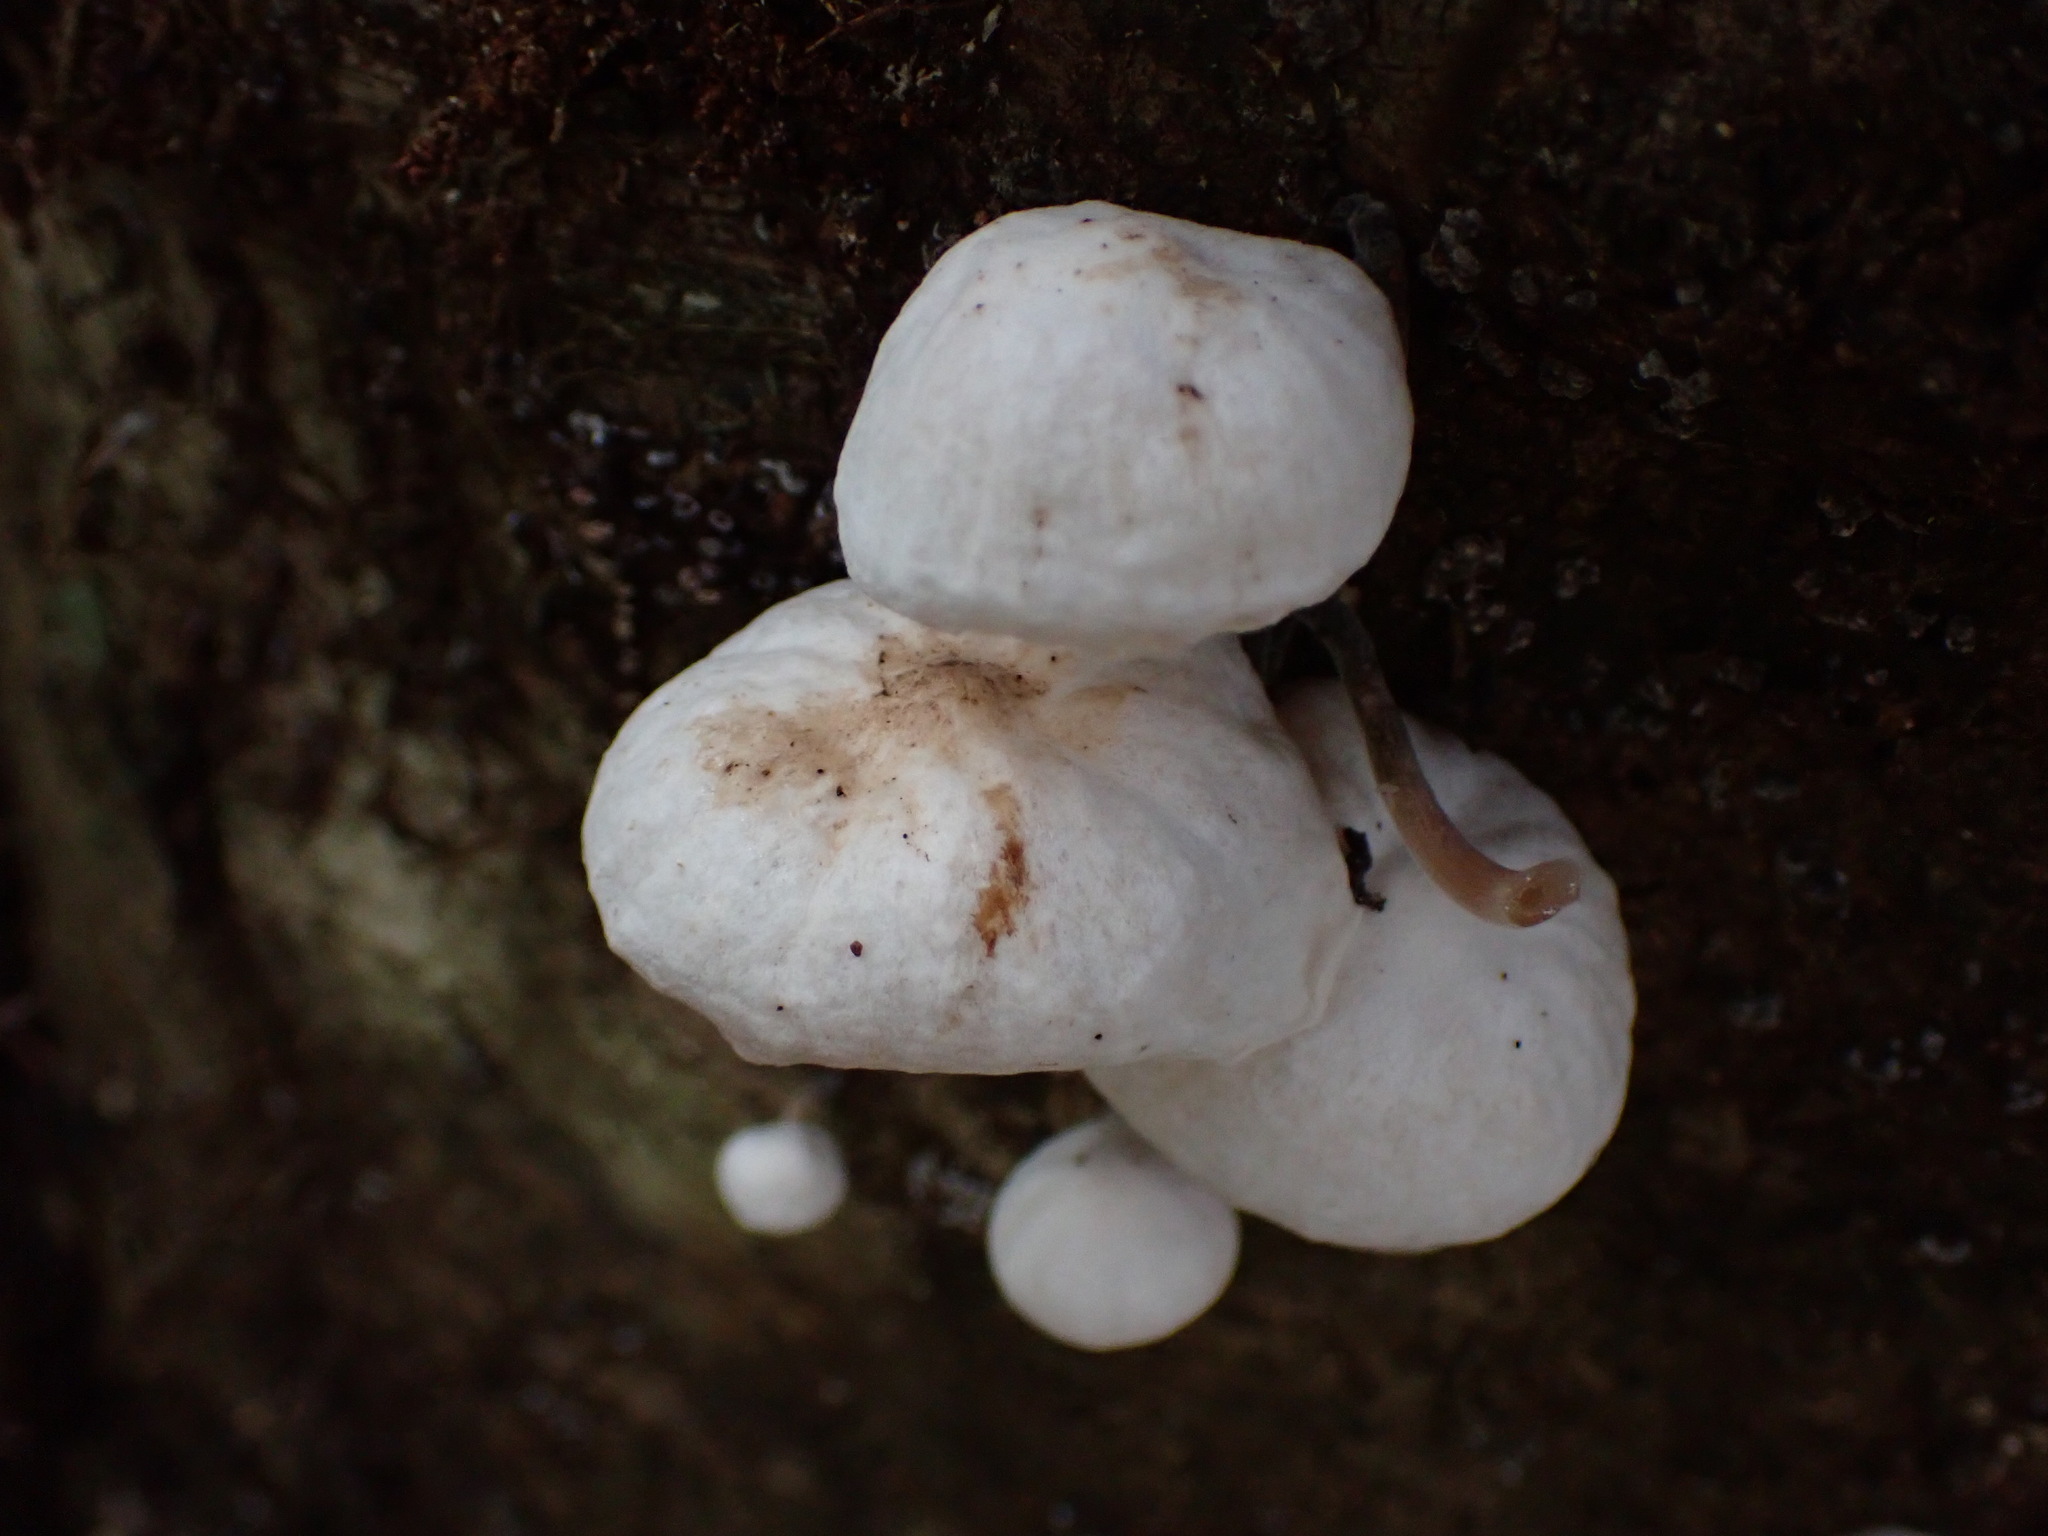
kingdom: Fungi
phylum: Basidiomycota
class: Agaricomycetes
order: Agaricales
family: Omphalotaceae
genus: Marasmiellus
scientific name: Marasmiellus candidus
